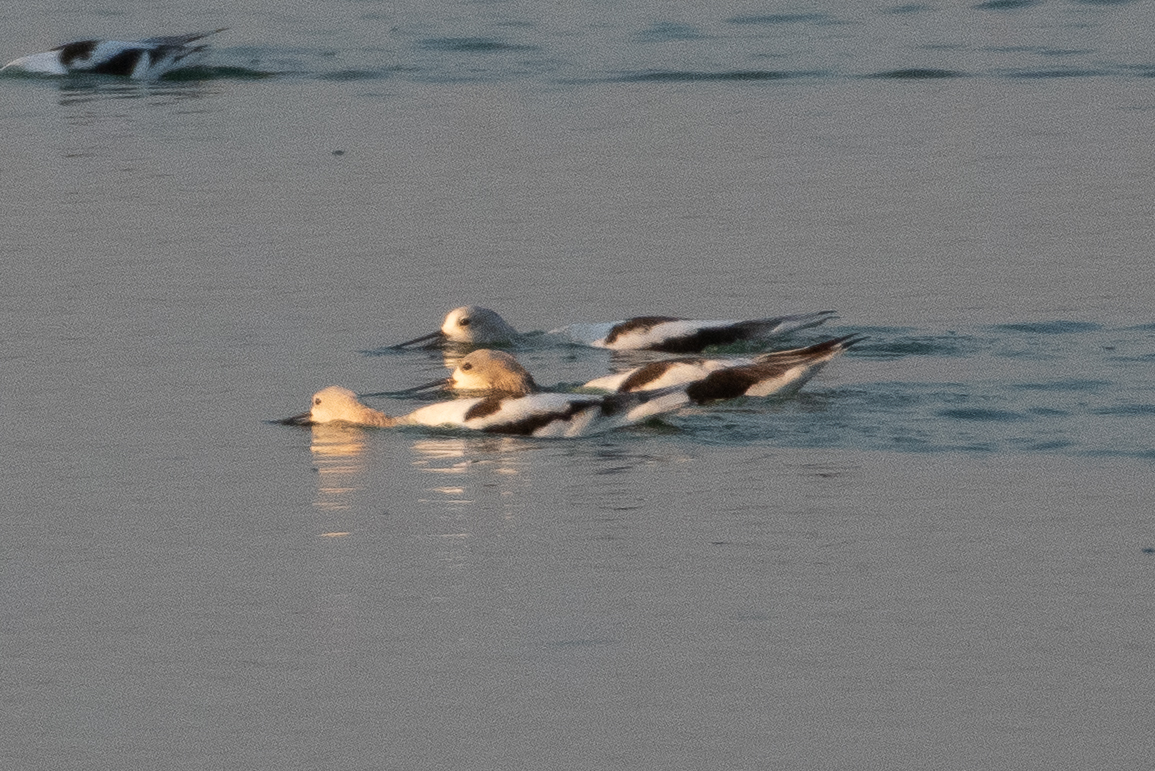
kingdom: Animalia
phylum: Chordata
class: Aves
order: Charadriiformes
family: Recurvirostridae
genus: Recurvirostra
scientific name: Recurvirostra americana
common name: American avocet
